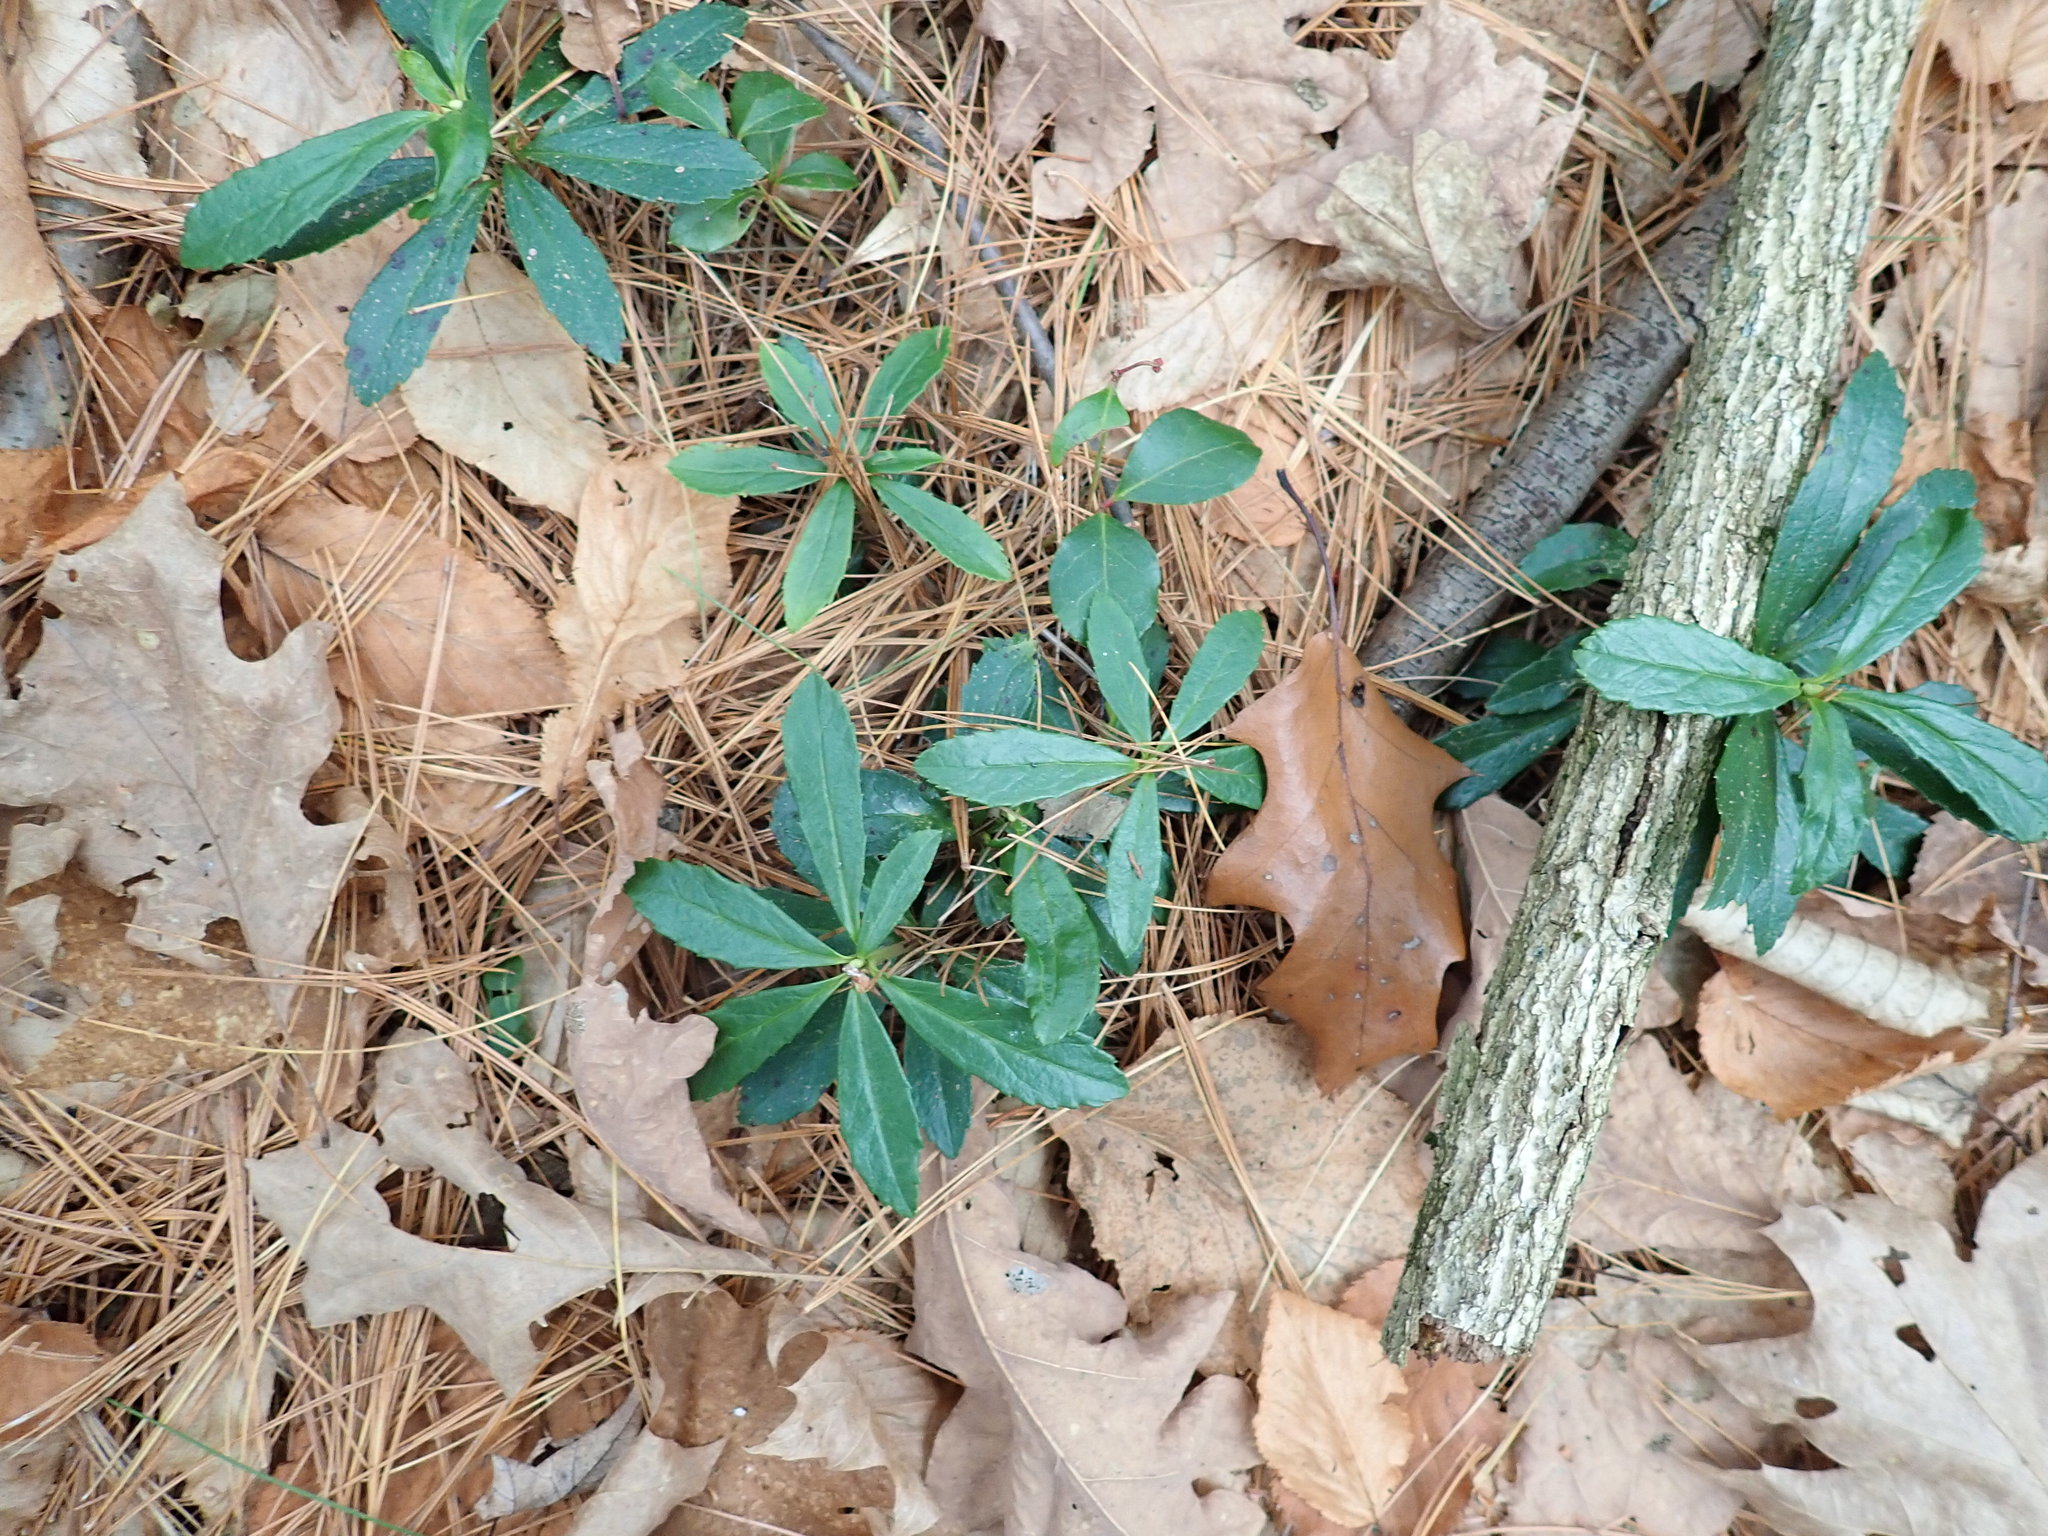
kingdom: Plantae
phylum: Tracheophyta
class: Magnoliopsida
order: Ericales
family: Ericaceae
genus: Chimaphila
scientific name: Chimaphila umbellata
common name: Pipsissewa
